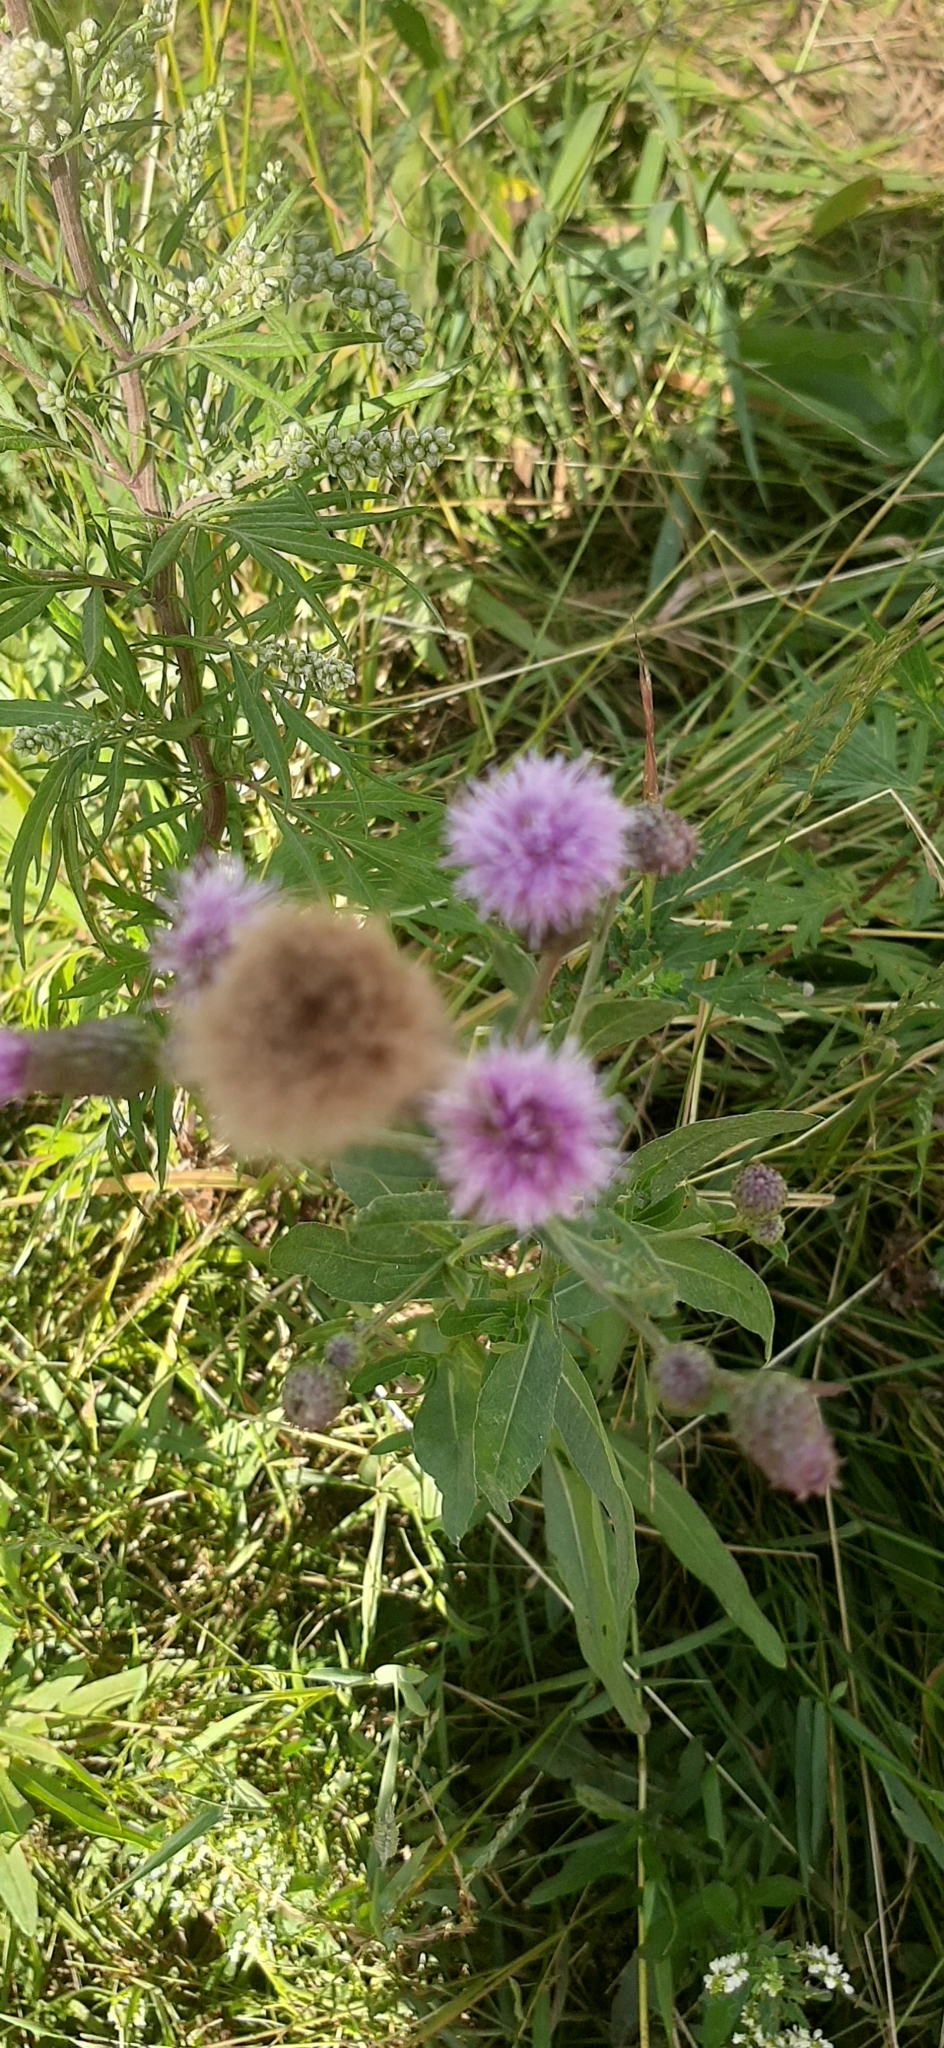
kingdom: Plantae
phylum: Tracheophyta
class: Magnoliopsida
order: Asterales
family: Asteraceae
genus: Cirsium
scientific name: Cirsium arvense
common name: Creeping thistle
